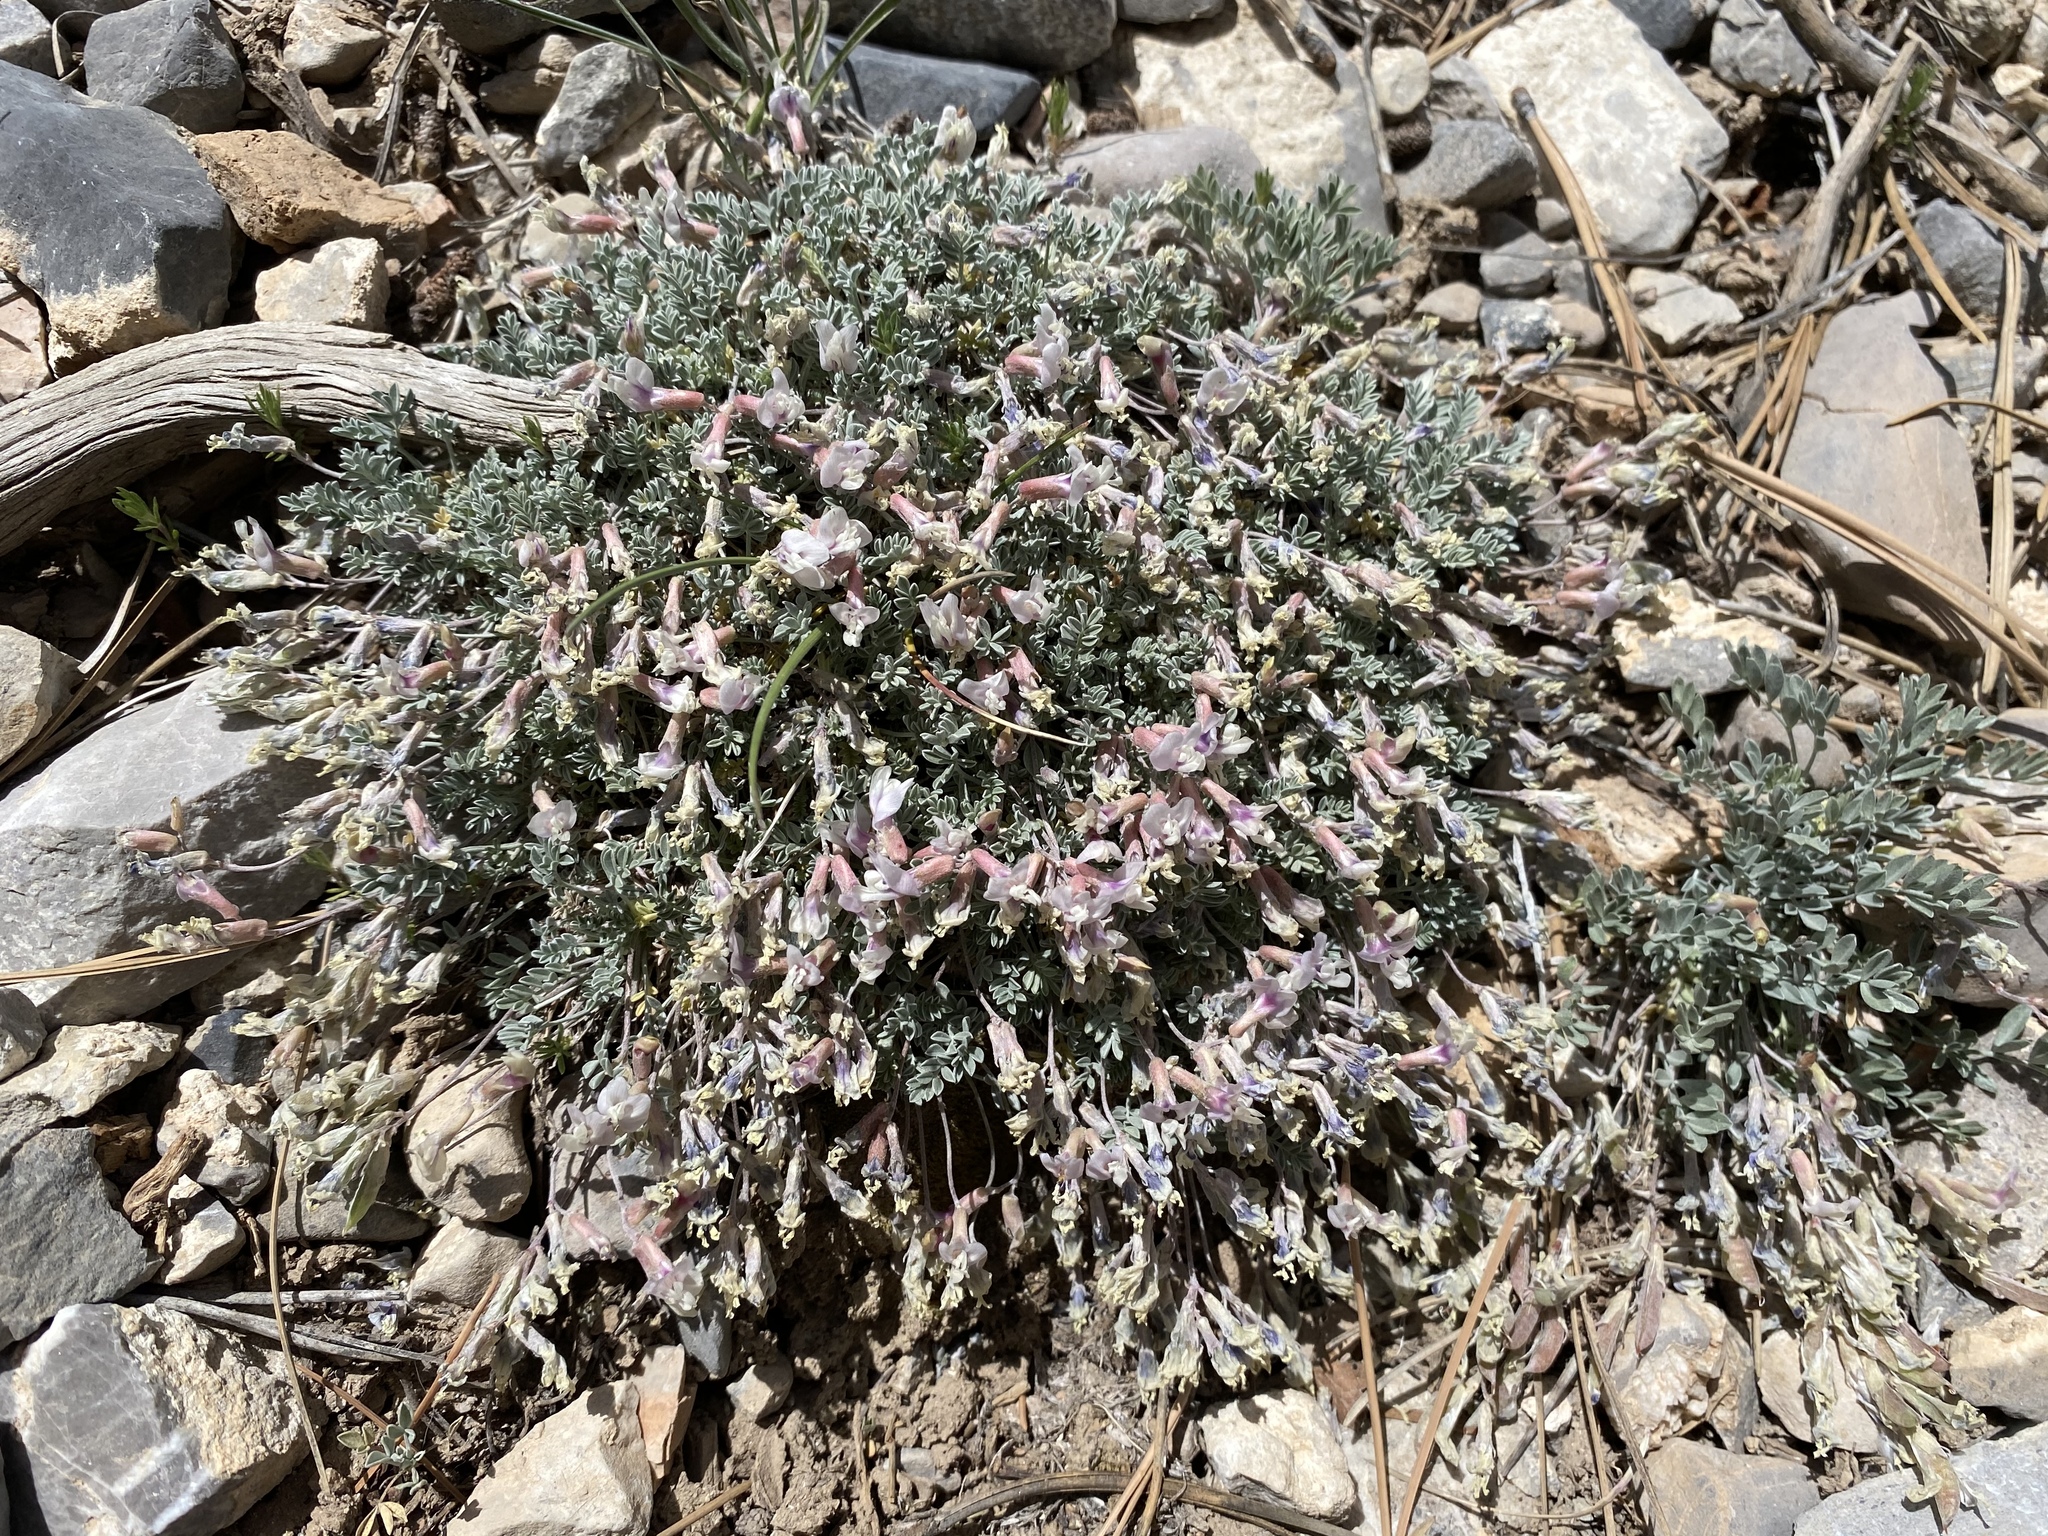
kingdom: Plantae
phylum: Tracheophyta
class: Magnoliopsida
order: Fabales
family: Fabaceae
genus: Astragalus
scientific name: Astragalus calycosus
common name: King's milkvetch
